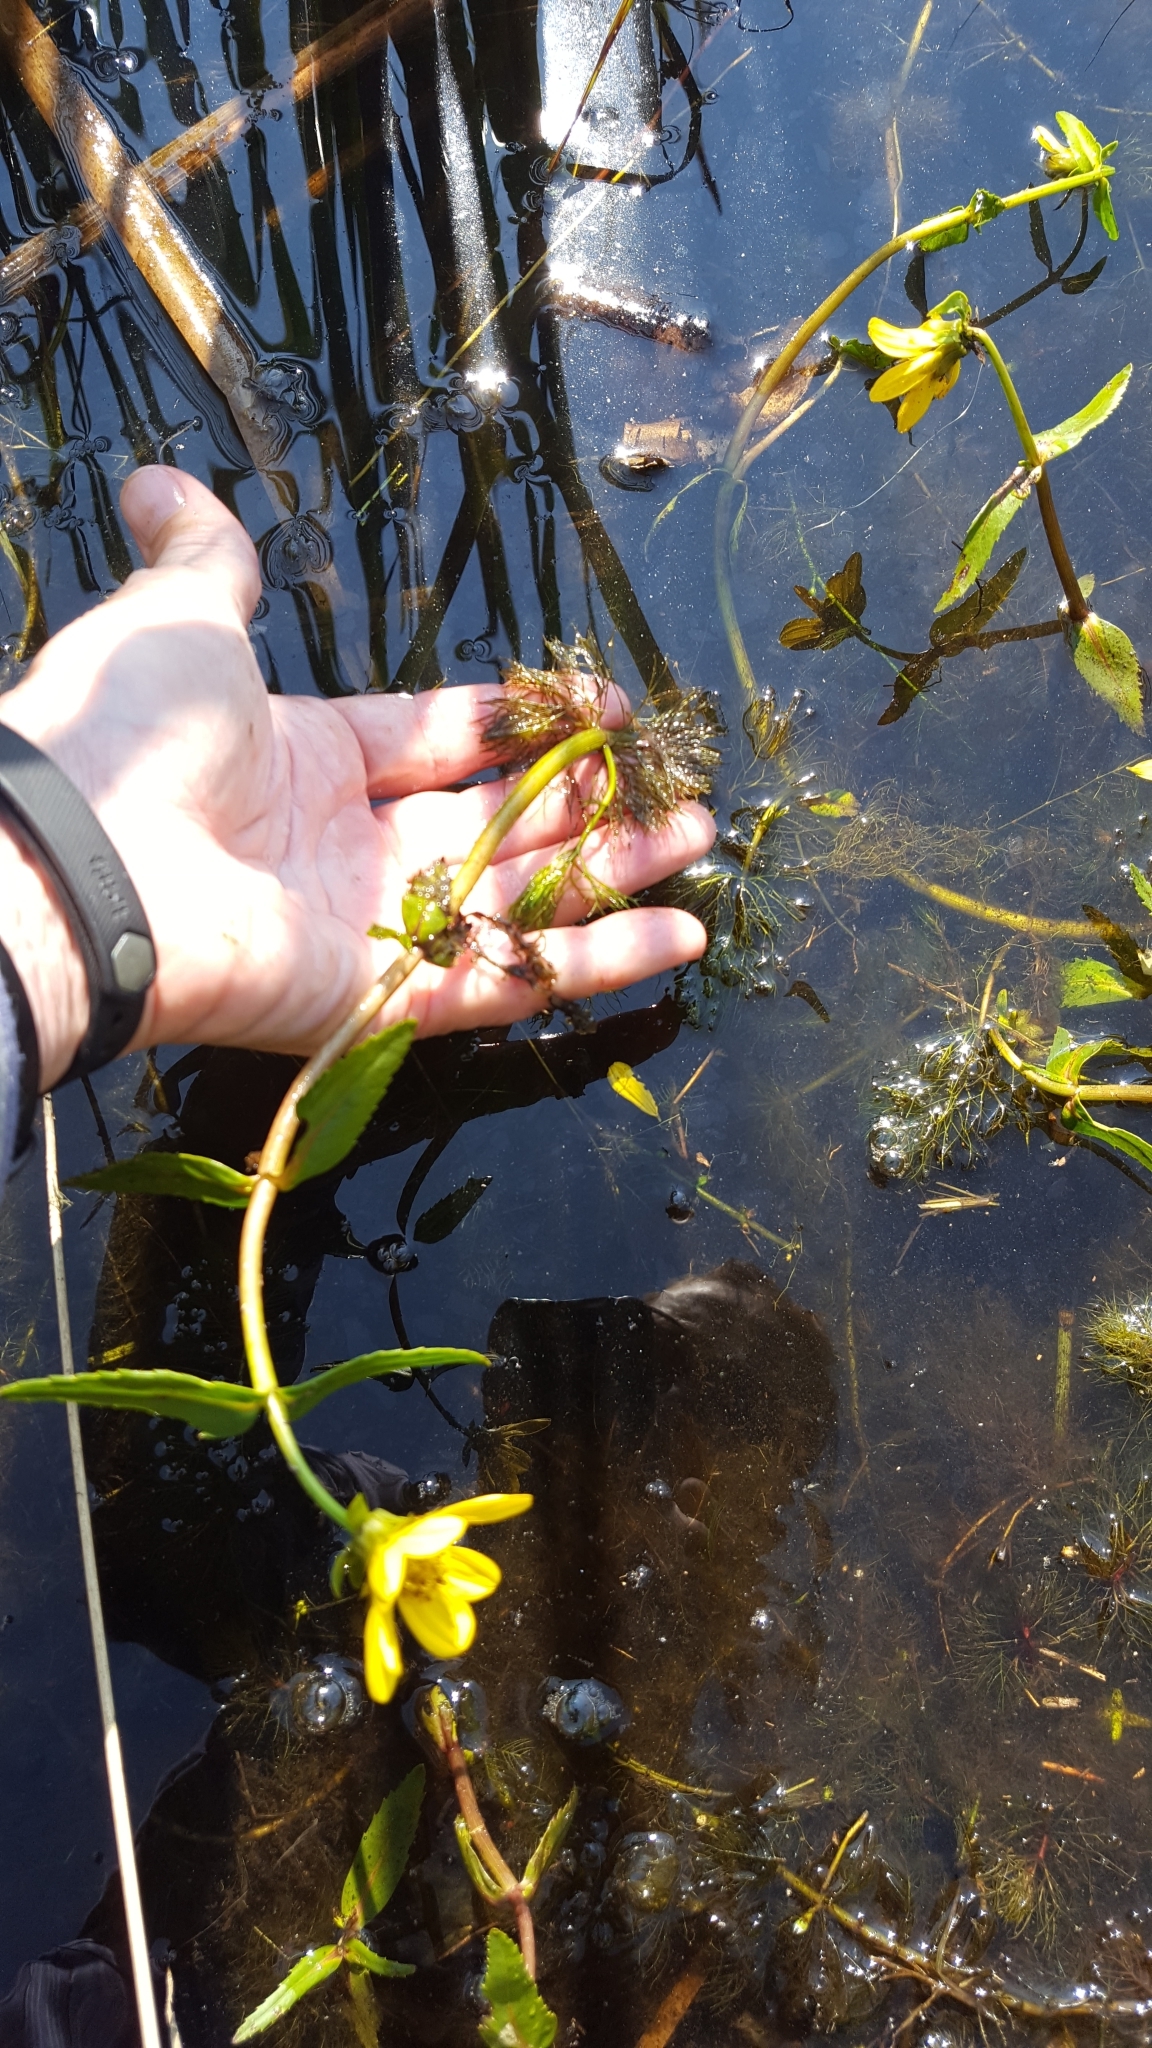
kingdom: Plantae
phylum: Tracheophyta
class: Magnoliopsida
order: Asterales
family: Asteraceae
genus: Bidens
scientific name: Bidens beckii
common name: Beck's beggarticks
